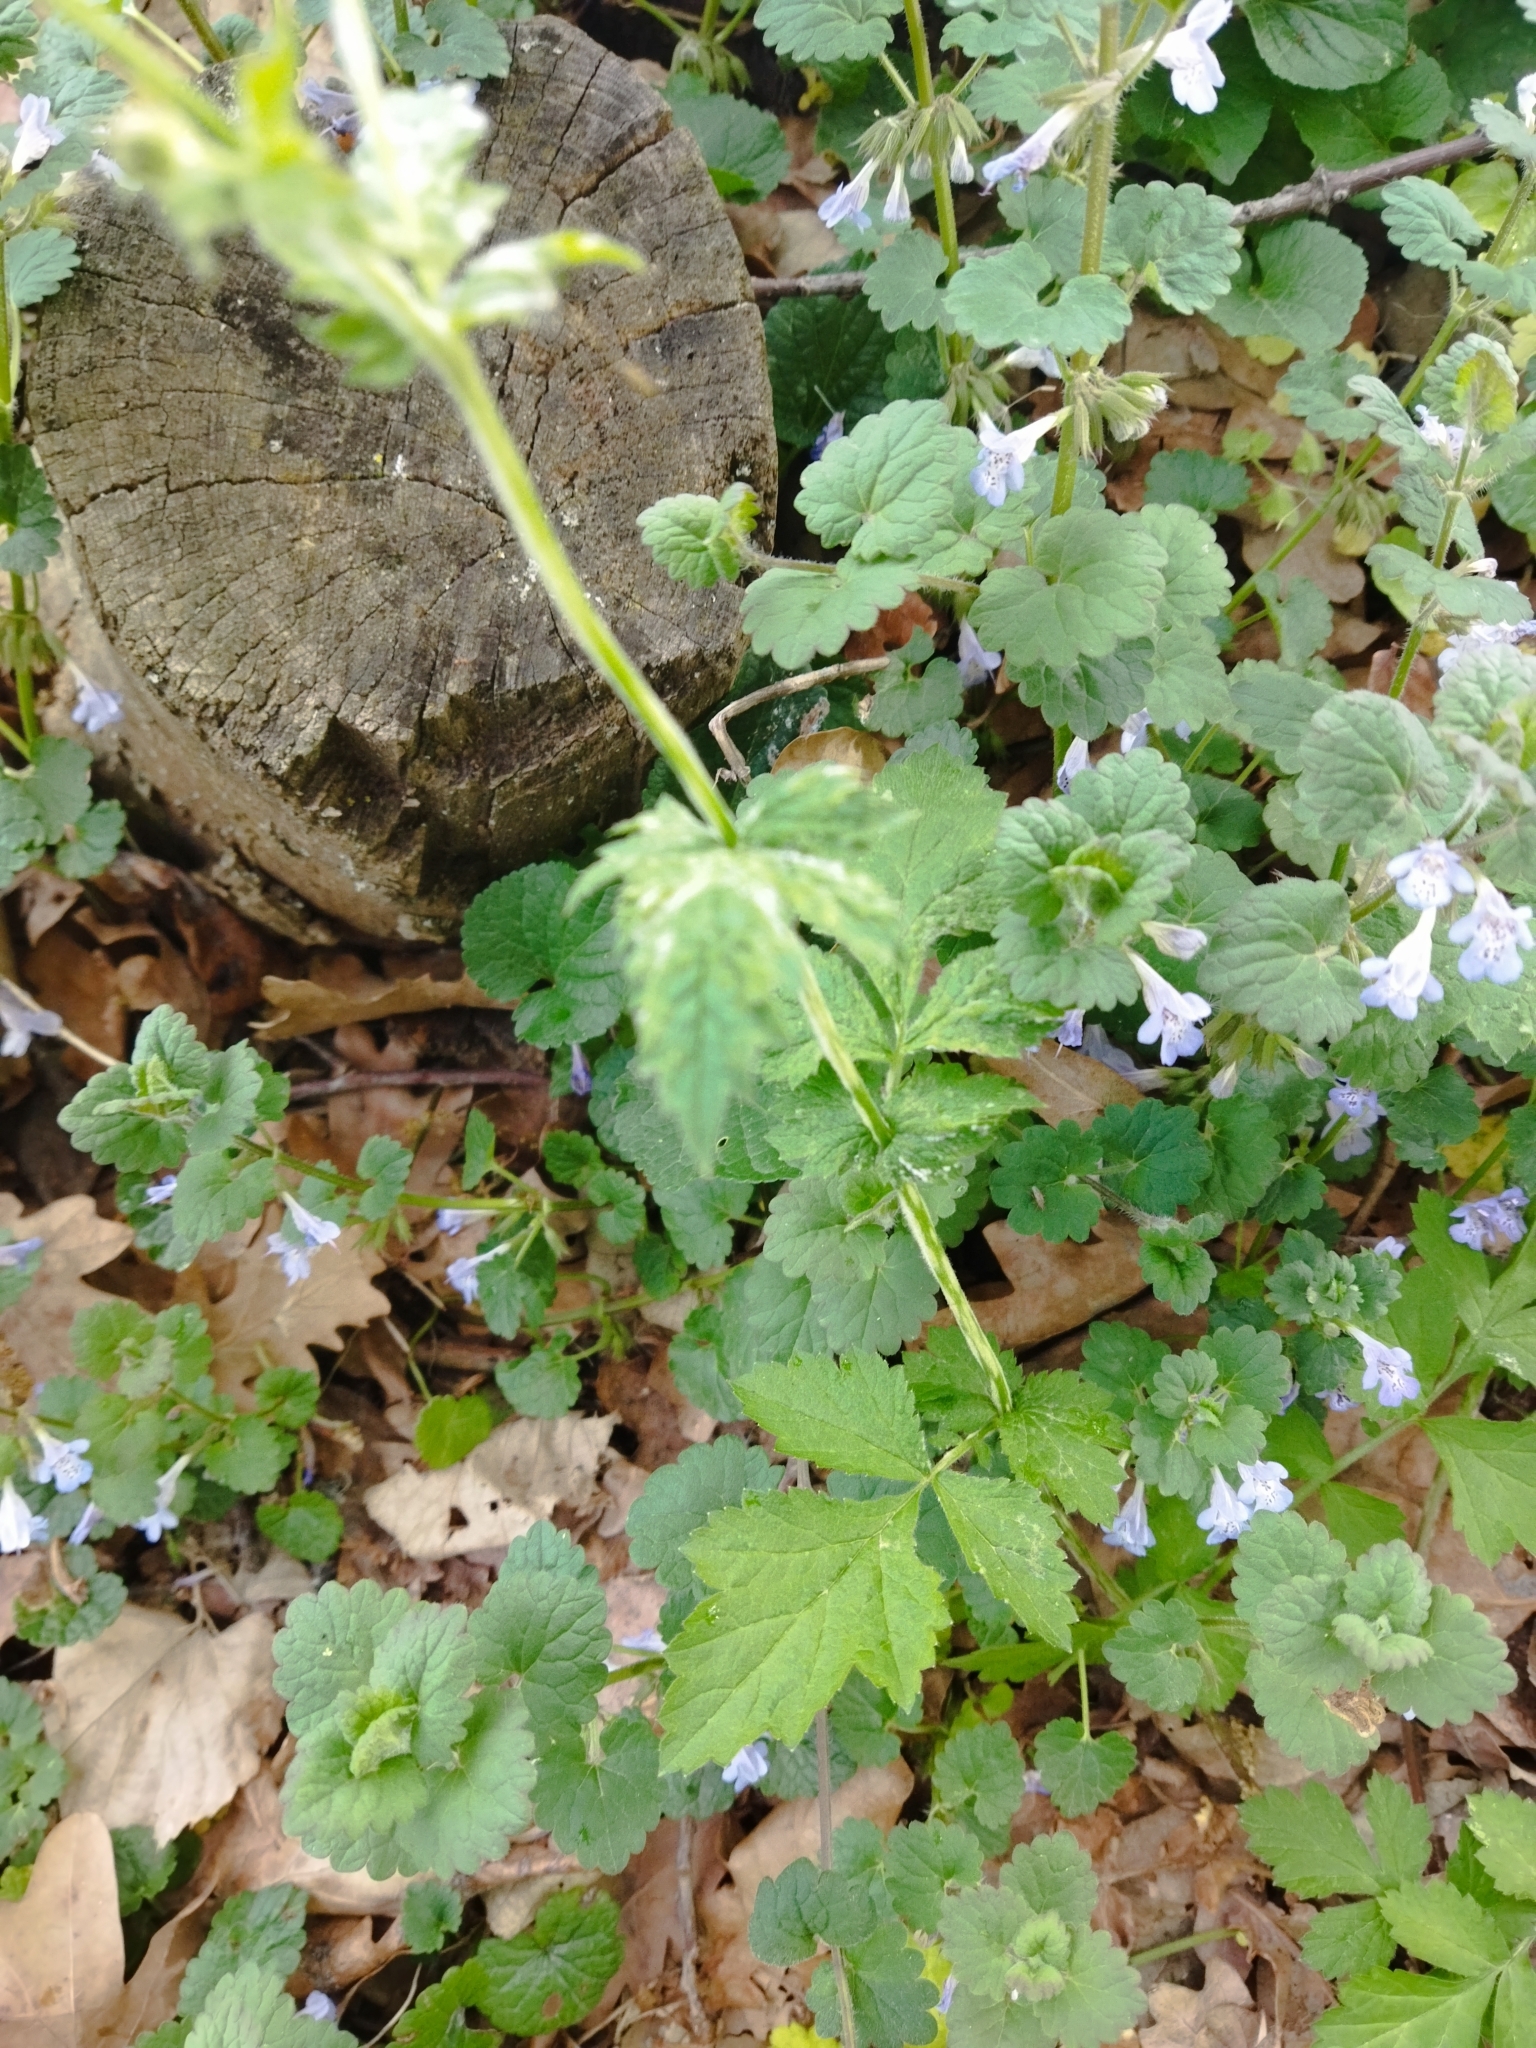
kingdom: Plantae
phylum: Tracheophyta
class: Magnoliopsida
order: Rosales
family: Rosaceae
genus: Geum
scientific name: Geum urbanum
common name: Wood avens
